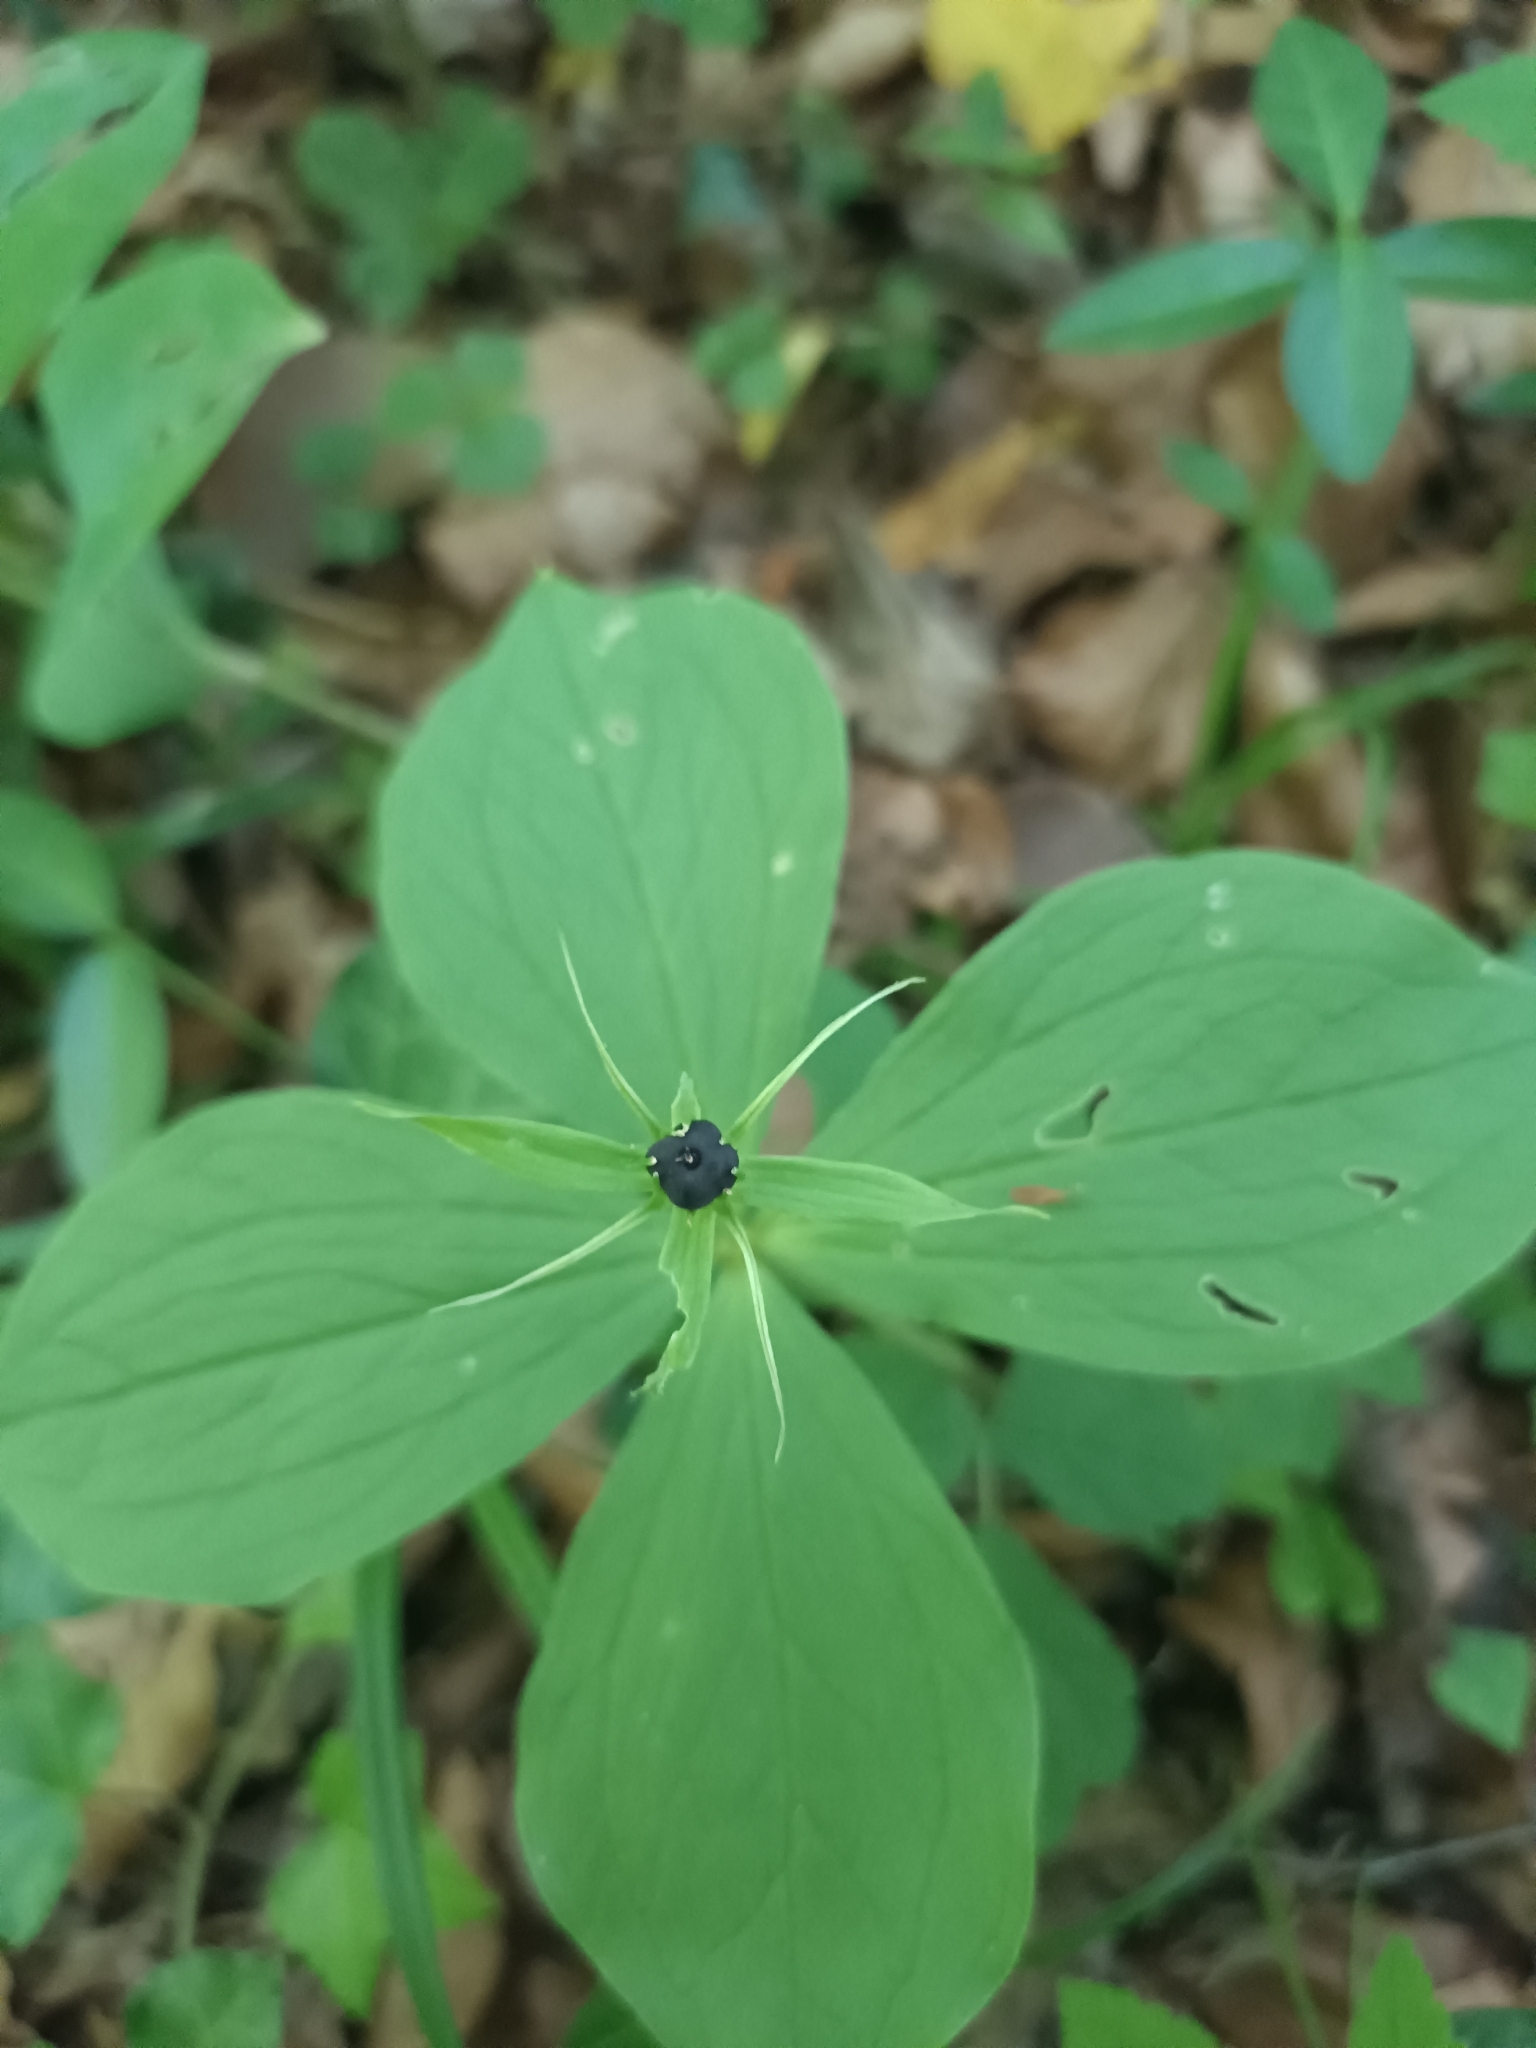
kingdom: Plantae
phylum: Tracheophyta
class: Liliopsida
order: Liliales
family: Melanthiaceae
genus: Paris
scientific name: Paris quadrifolia
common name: Herb-paris
